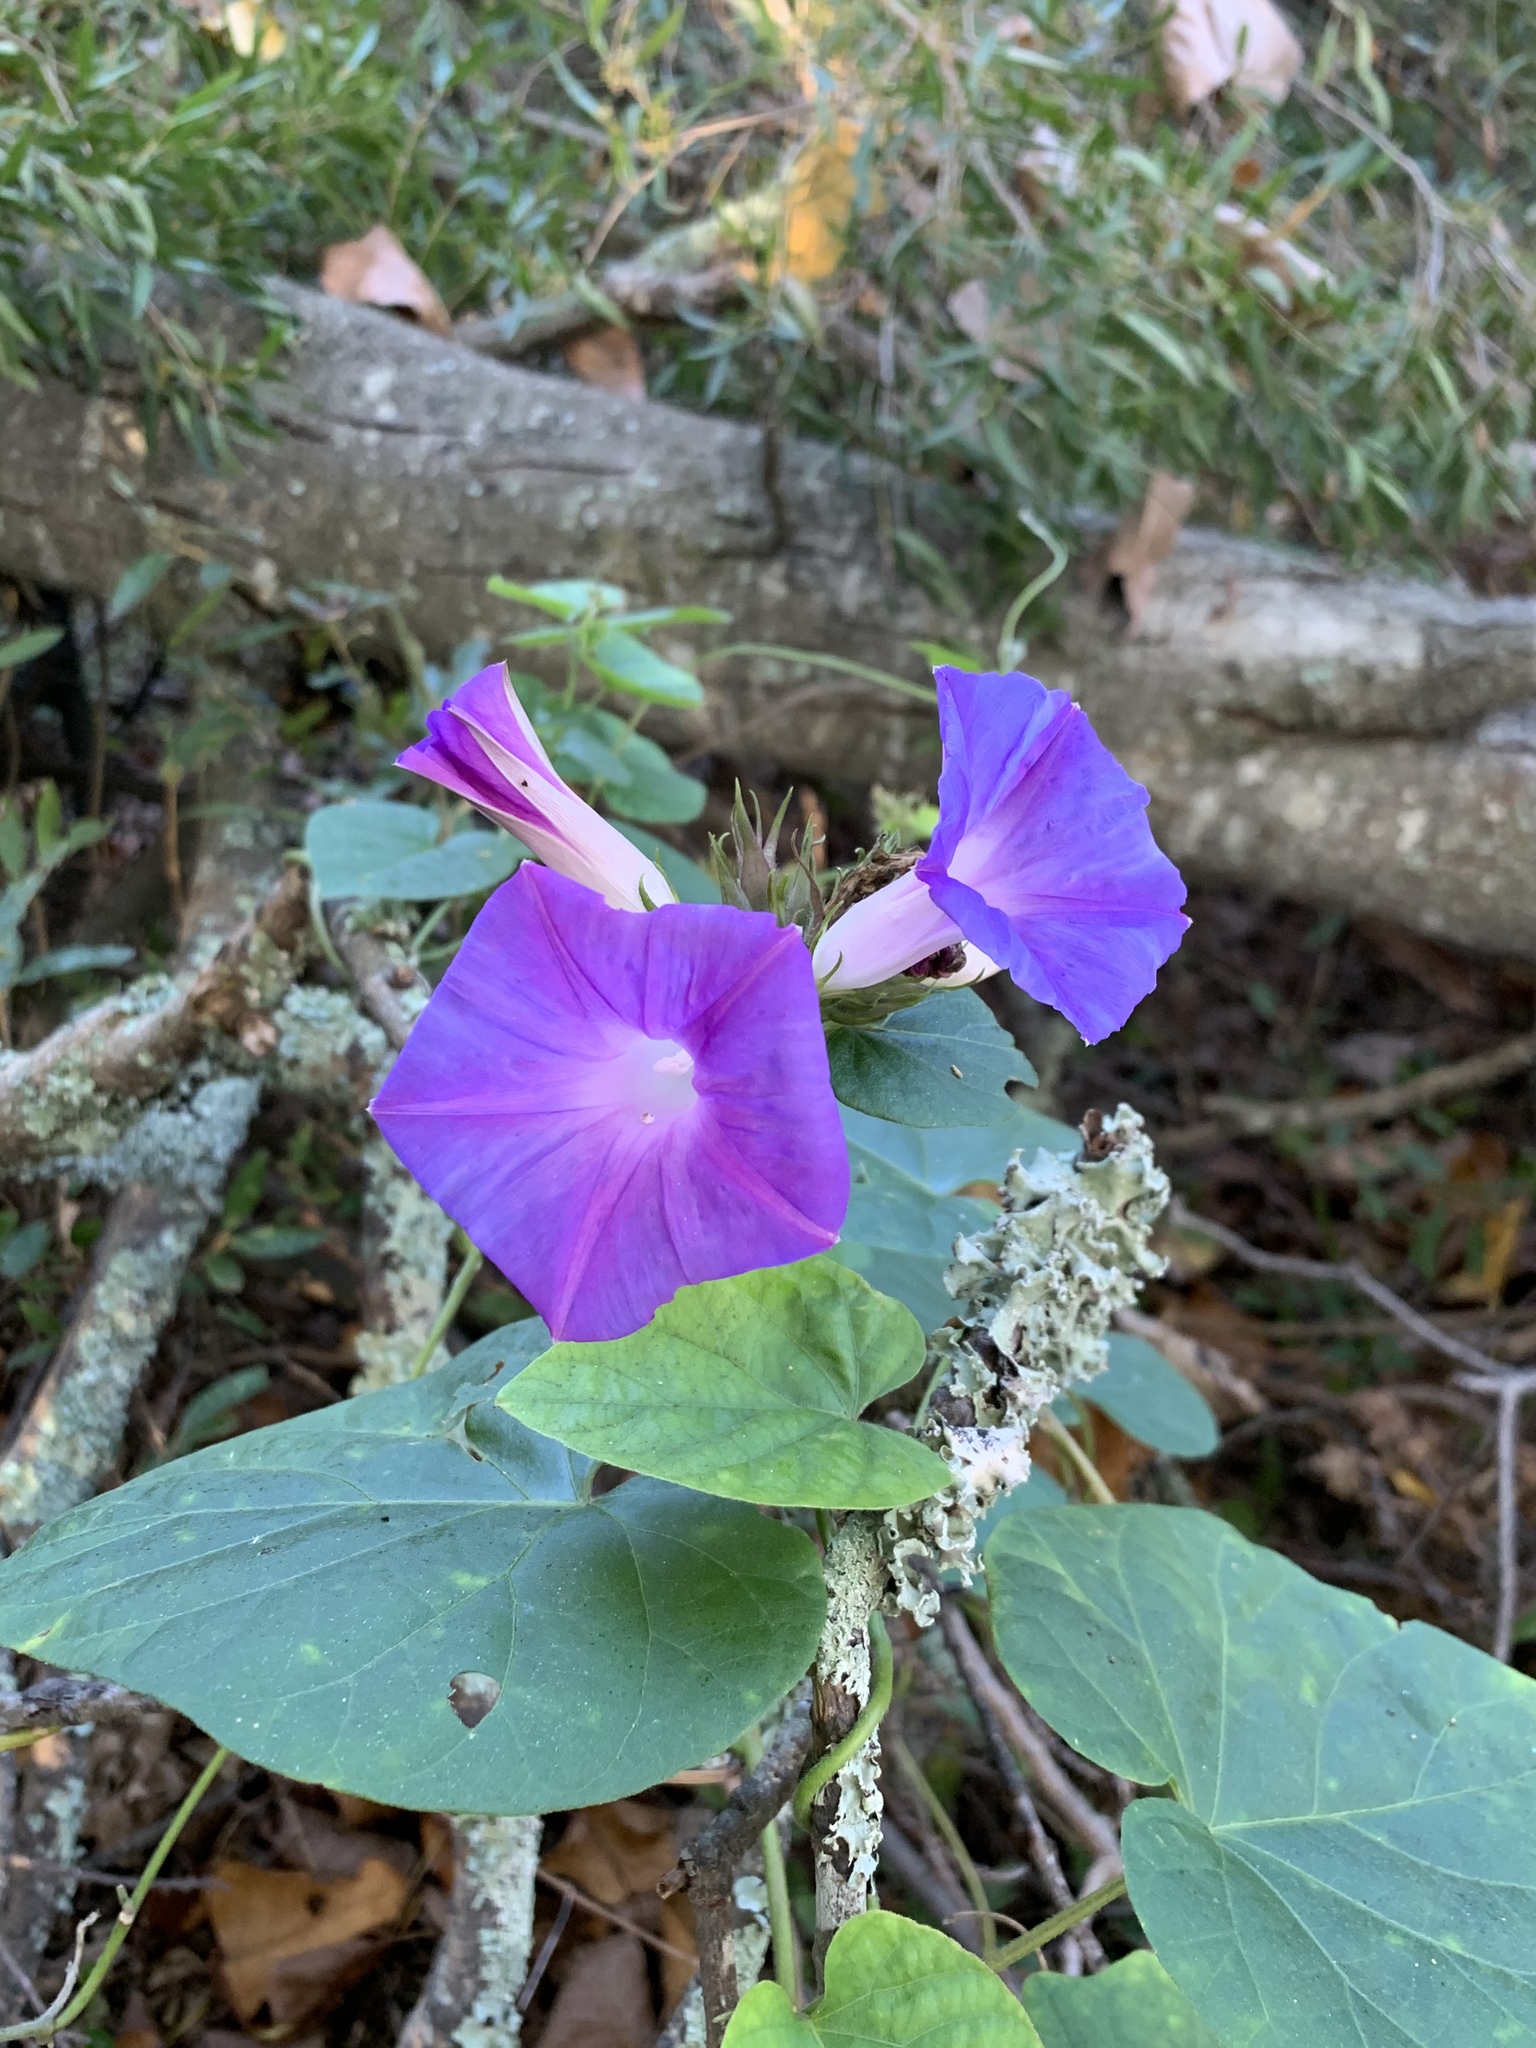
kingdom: Plantae
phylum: Tracheophyta
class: Magnoliopsida
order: Solanales
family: Convolvulaceae
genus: Ipomoea
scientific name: Ipomoea indica
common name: Blue dawnflower
